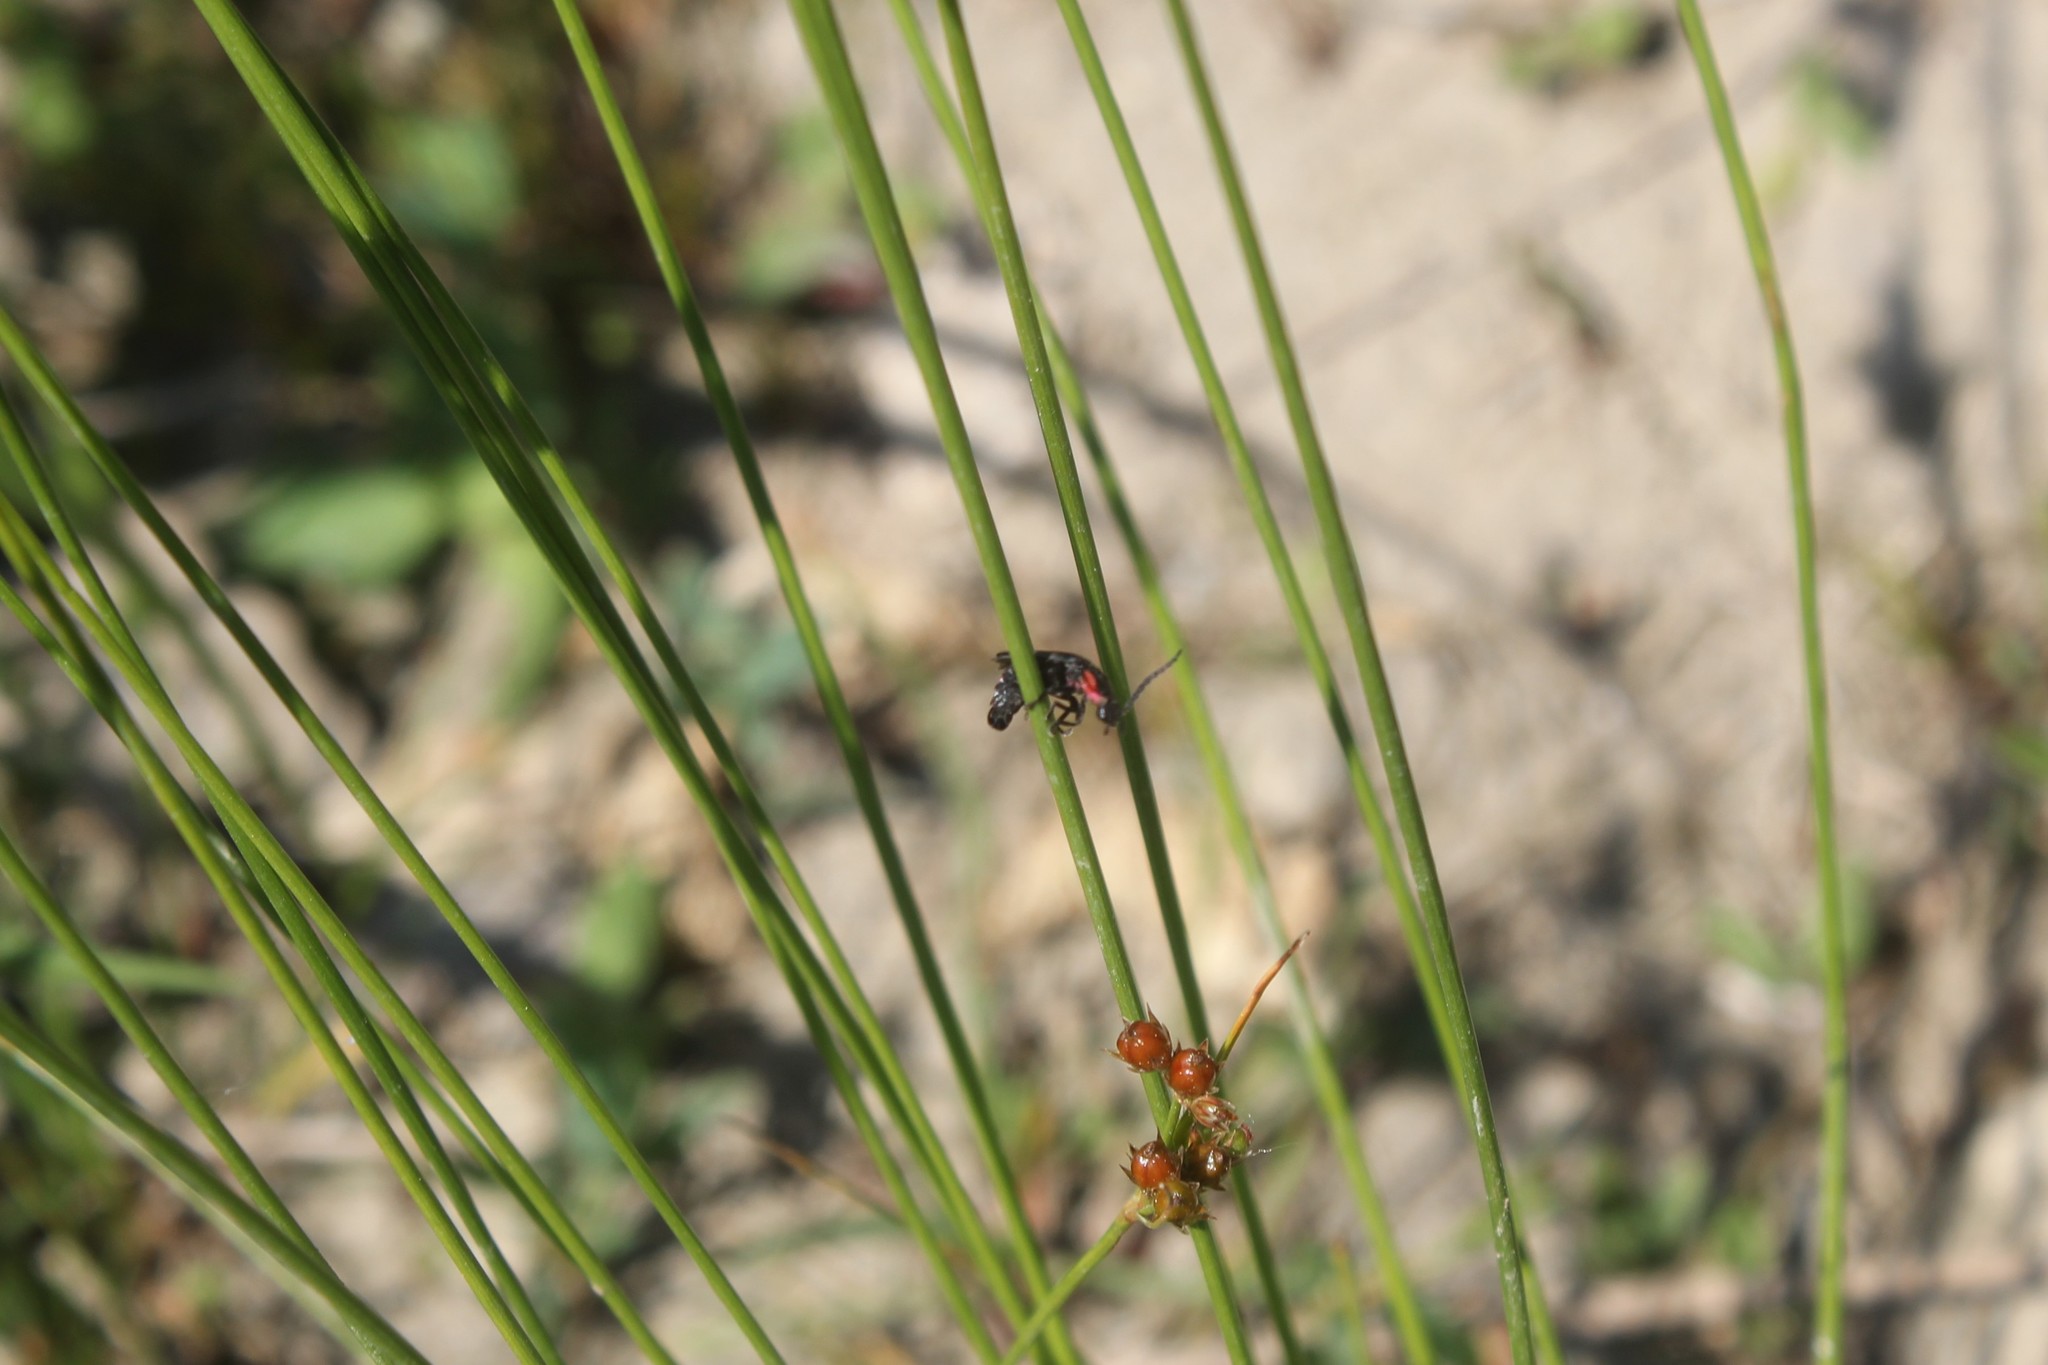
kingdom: Animalia
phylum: Arthropoda
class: Insecta
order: Coleoptera
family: Lampyridae
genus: Pyropyga
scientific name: Pyropyga nigricans
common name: Dark firefly
